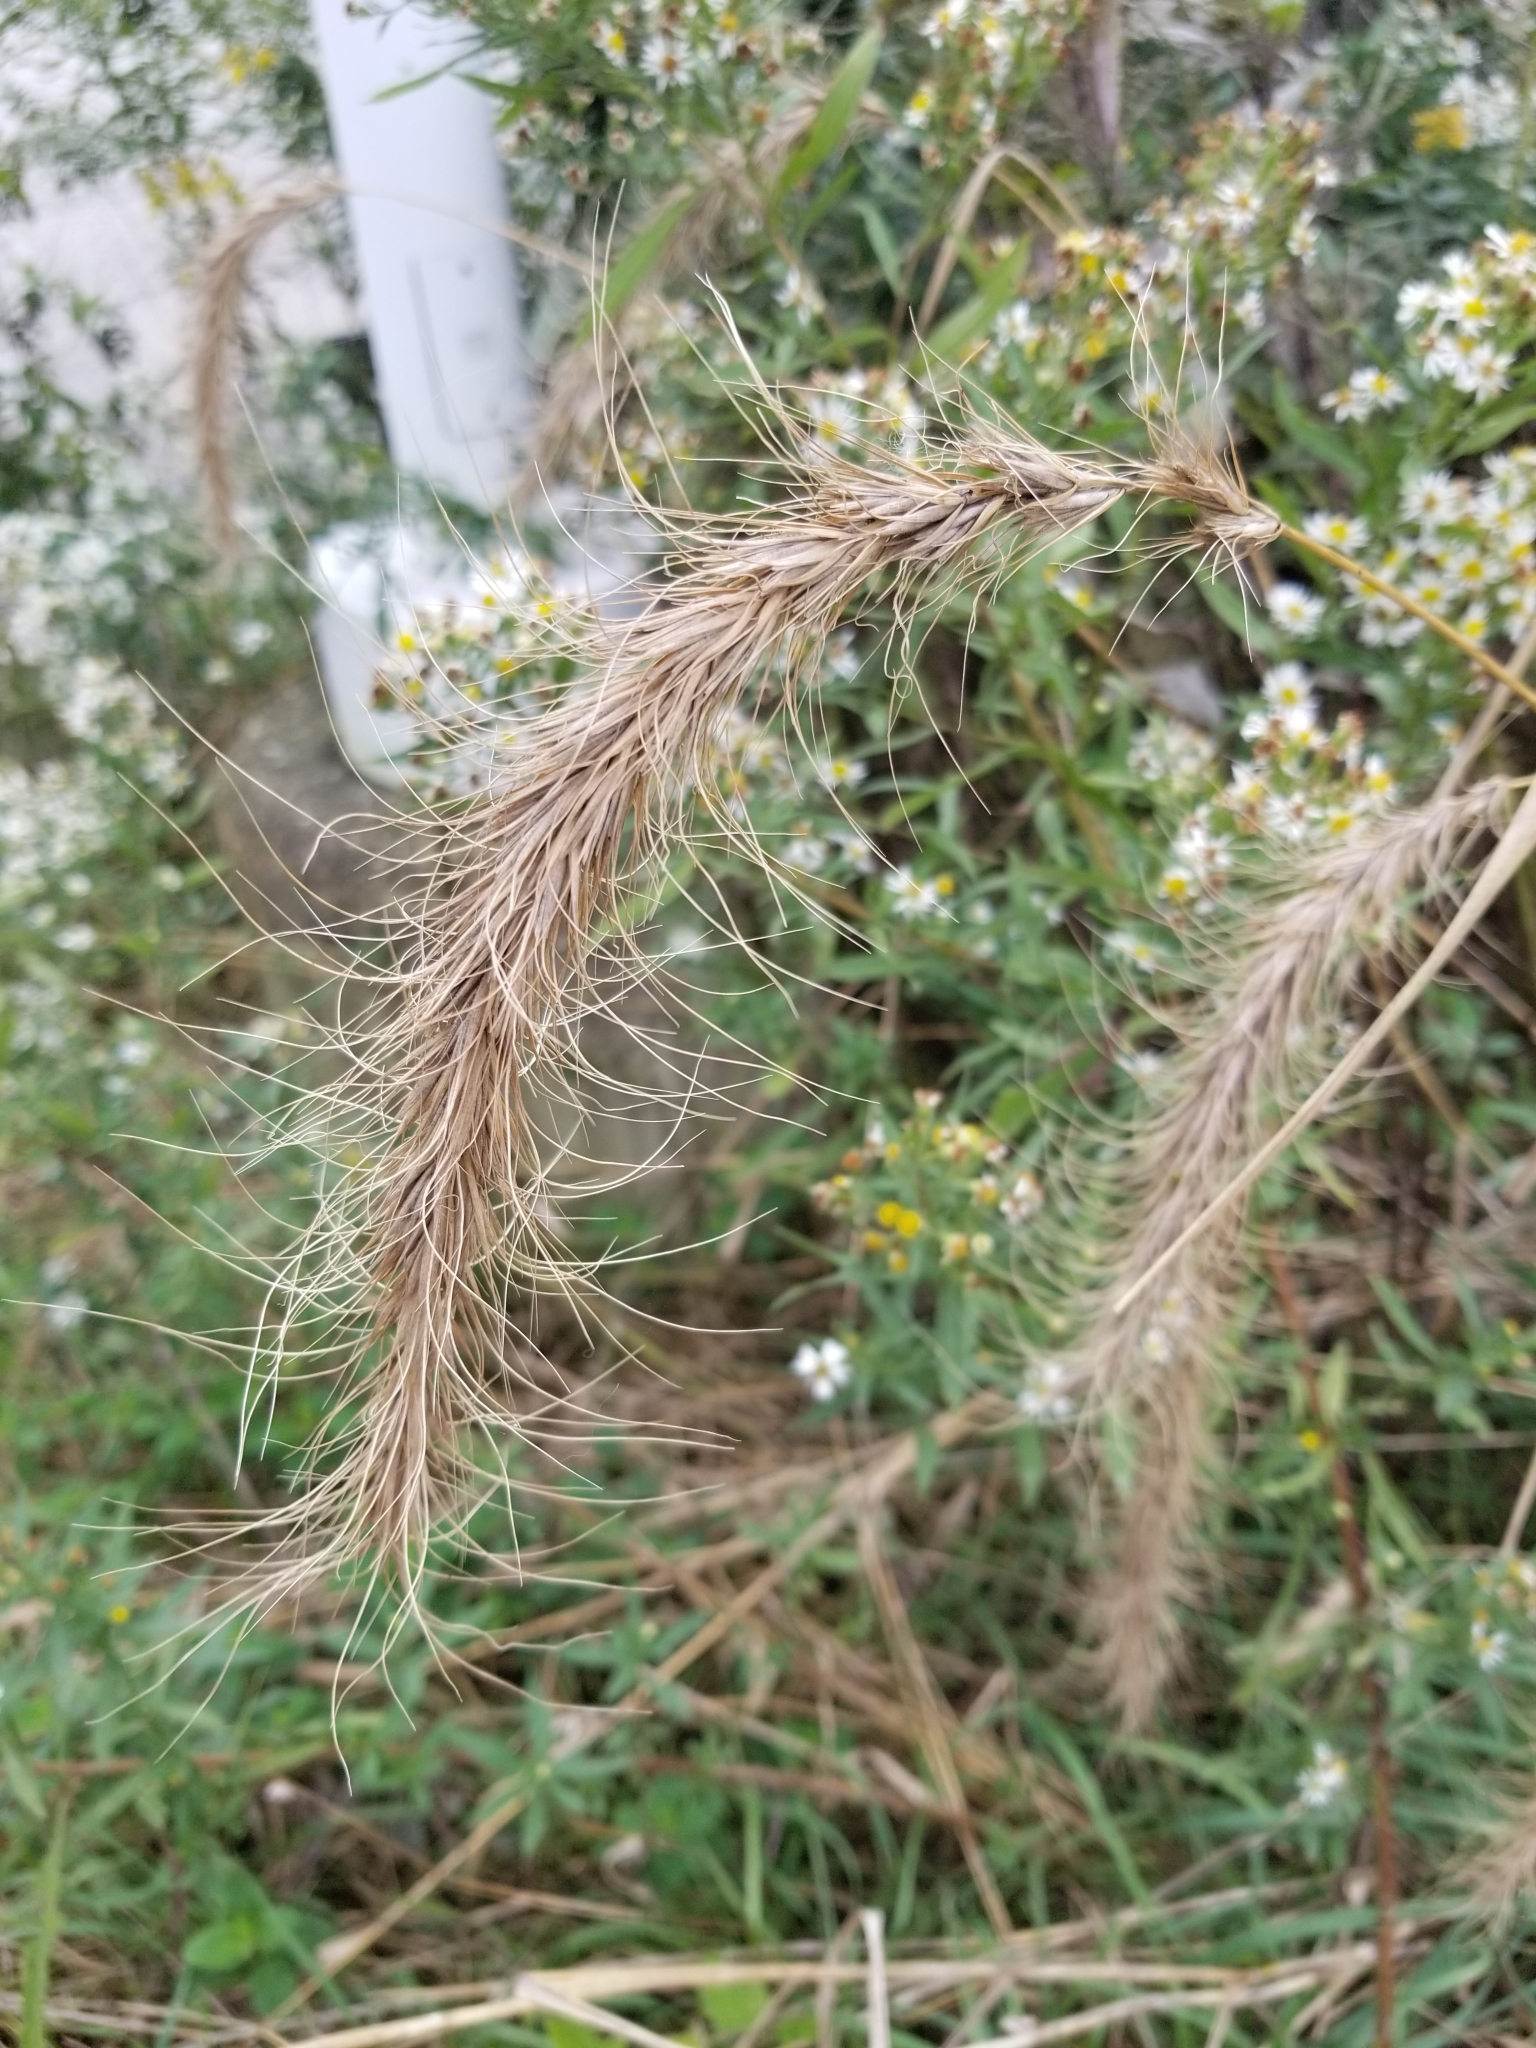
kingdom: Plantae
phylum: Tracheophyta
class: Liliopsida
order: Poales
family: Poaceae
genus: Elymus
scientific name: Elymus canadensis
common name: Canada wild rye
